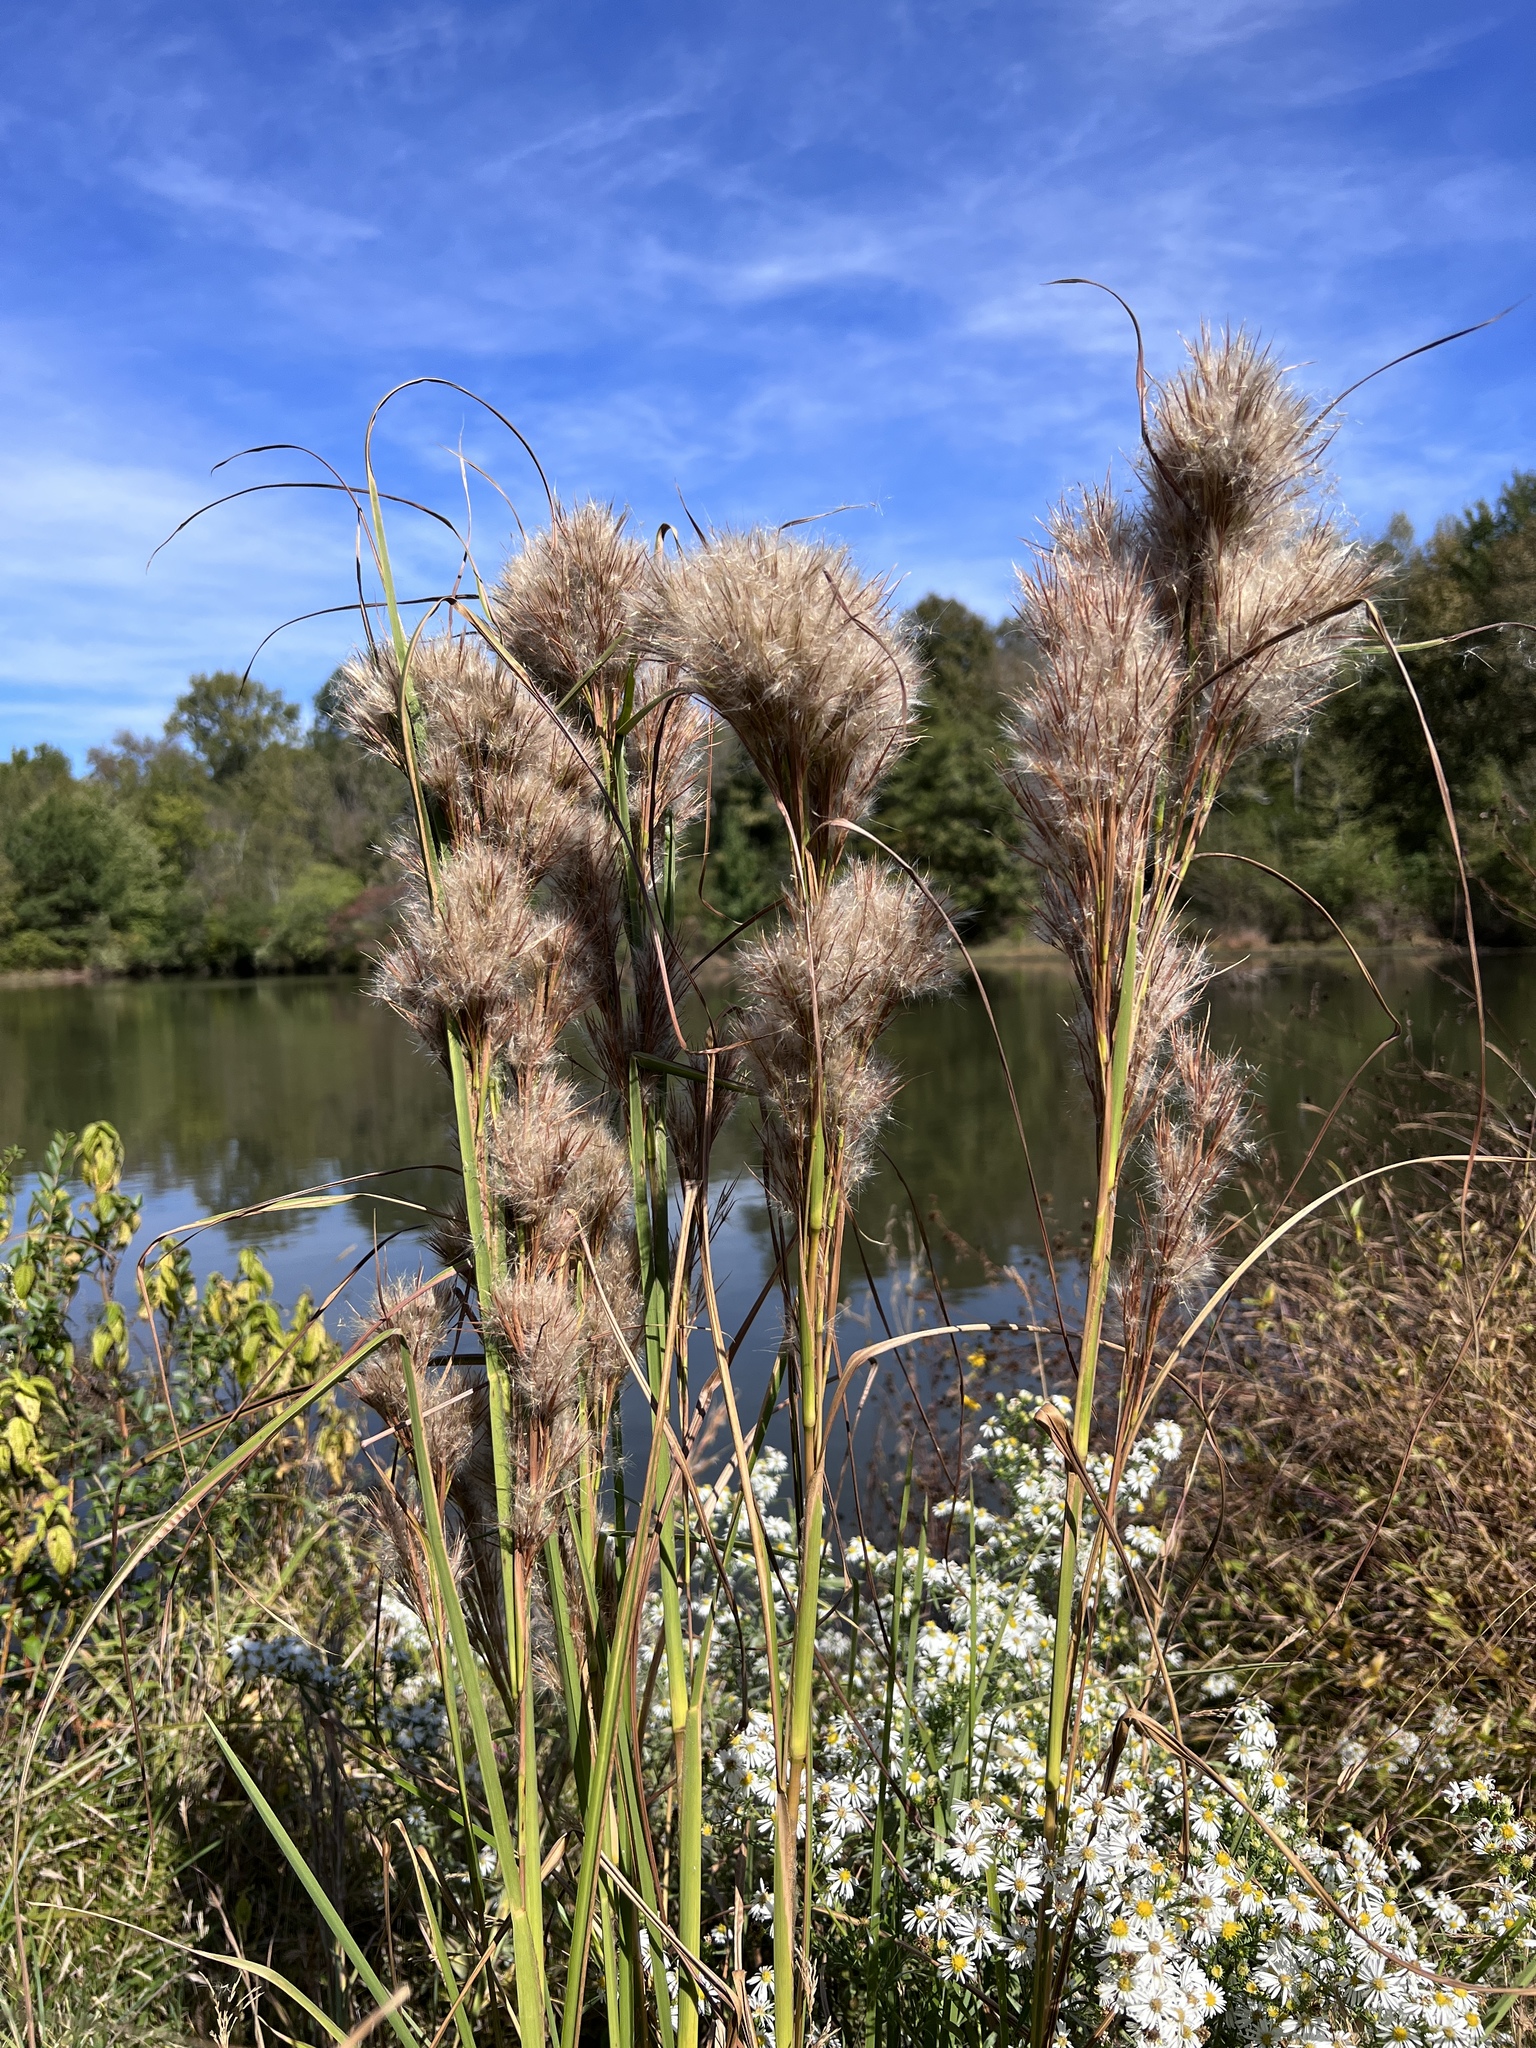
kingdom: Plantae
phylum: Tracheophyta
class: Liliopsida
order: Poales
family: Poaceae
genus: Andropogon
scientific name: Andropogon tenuispatheus
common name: Bushy bluestem
